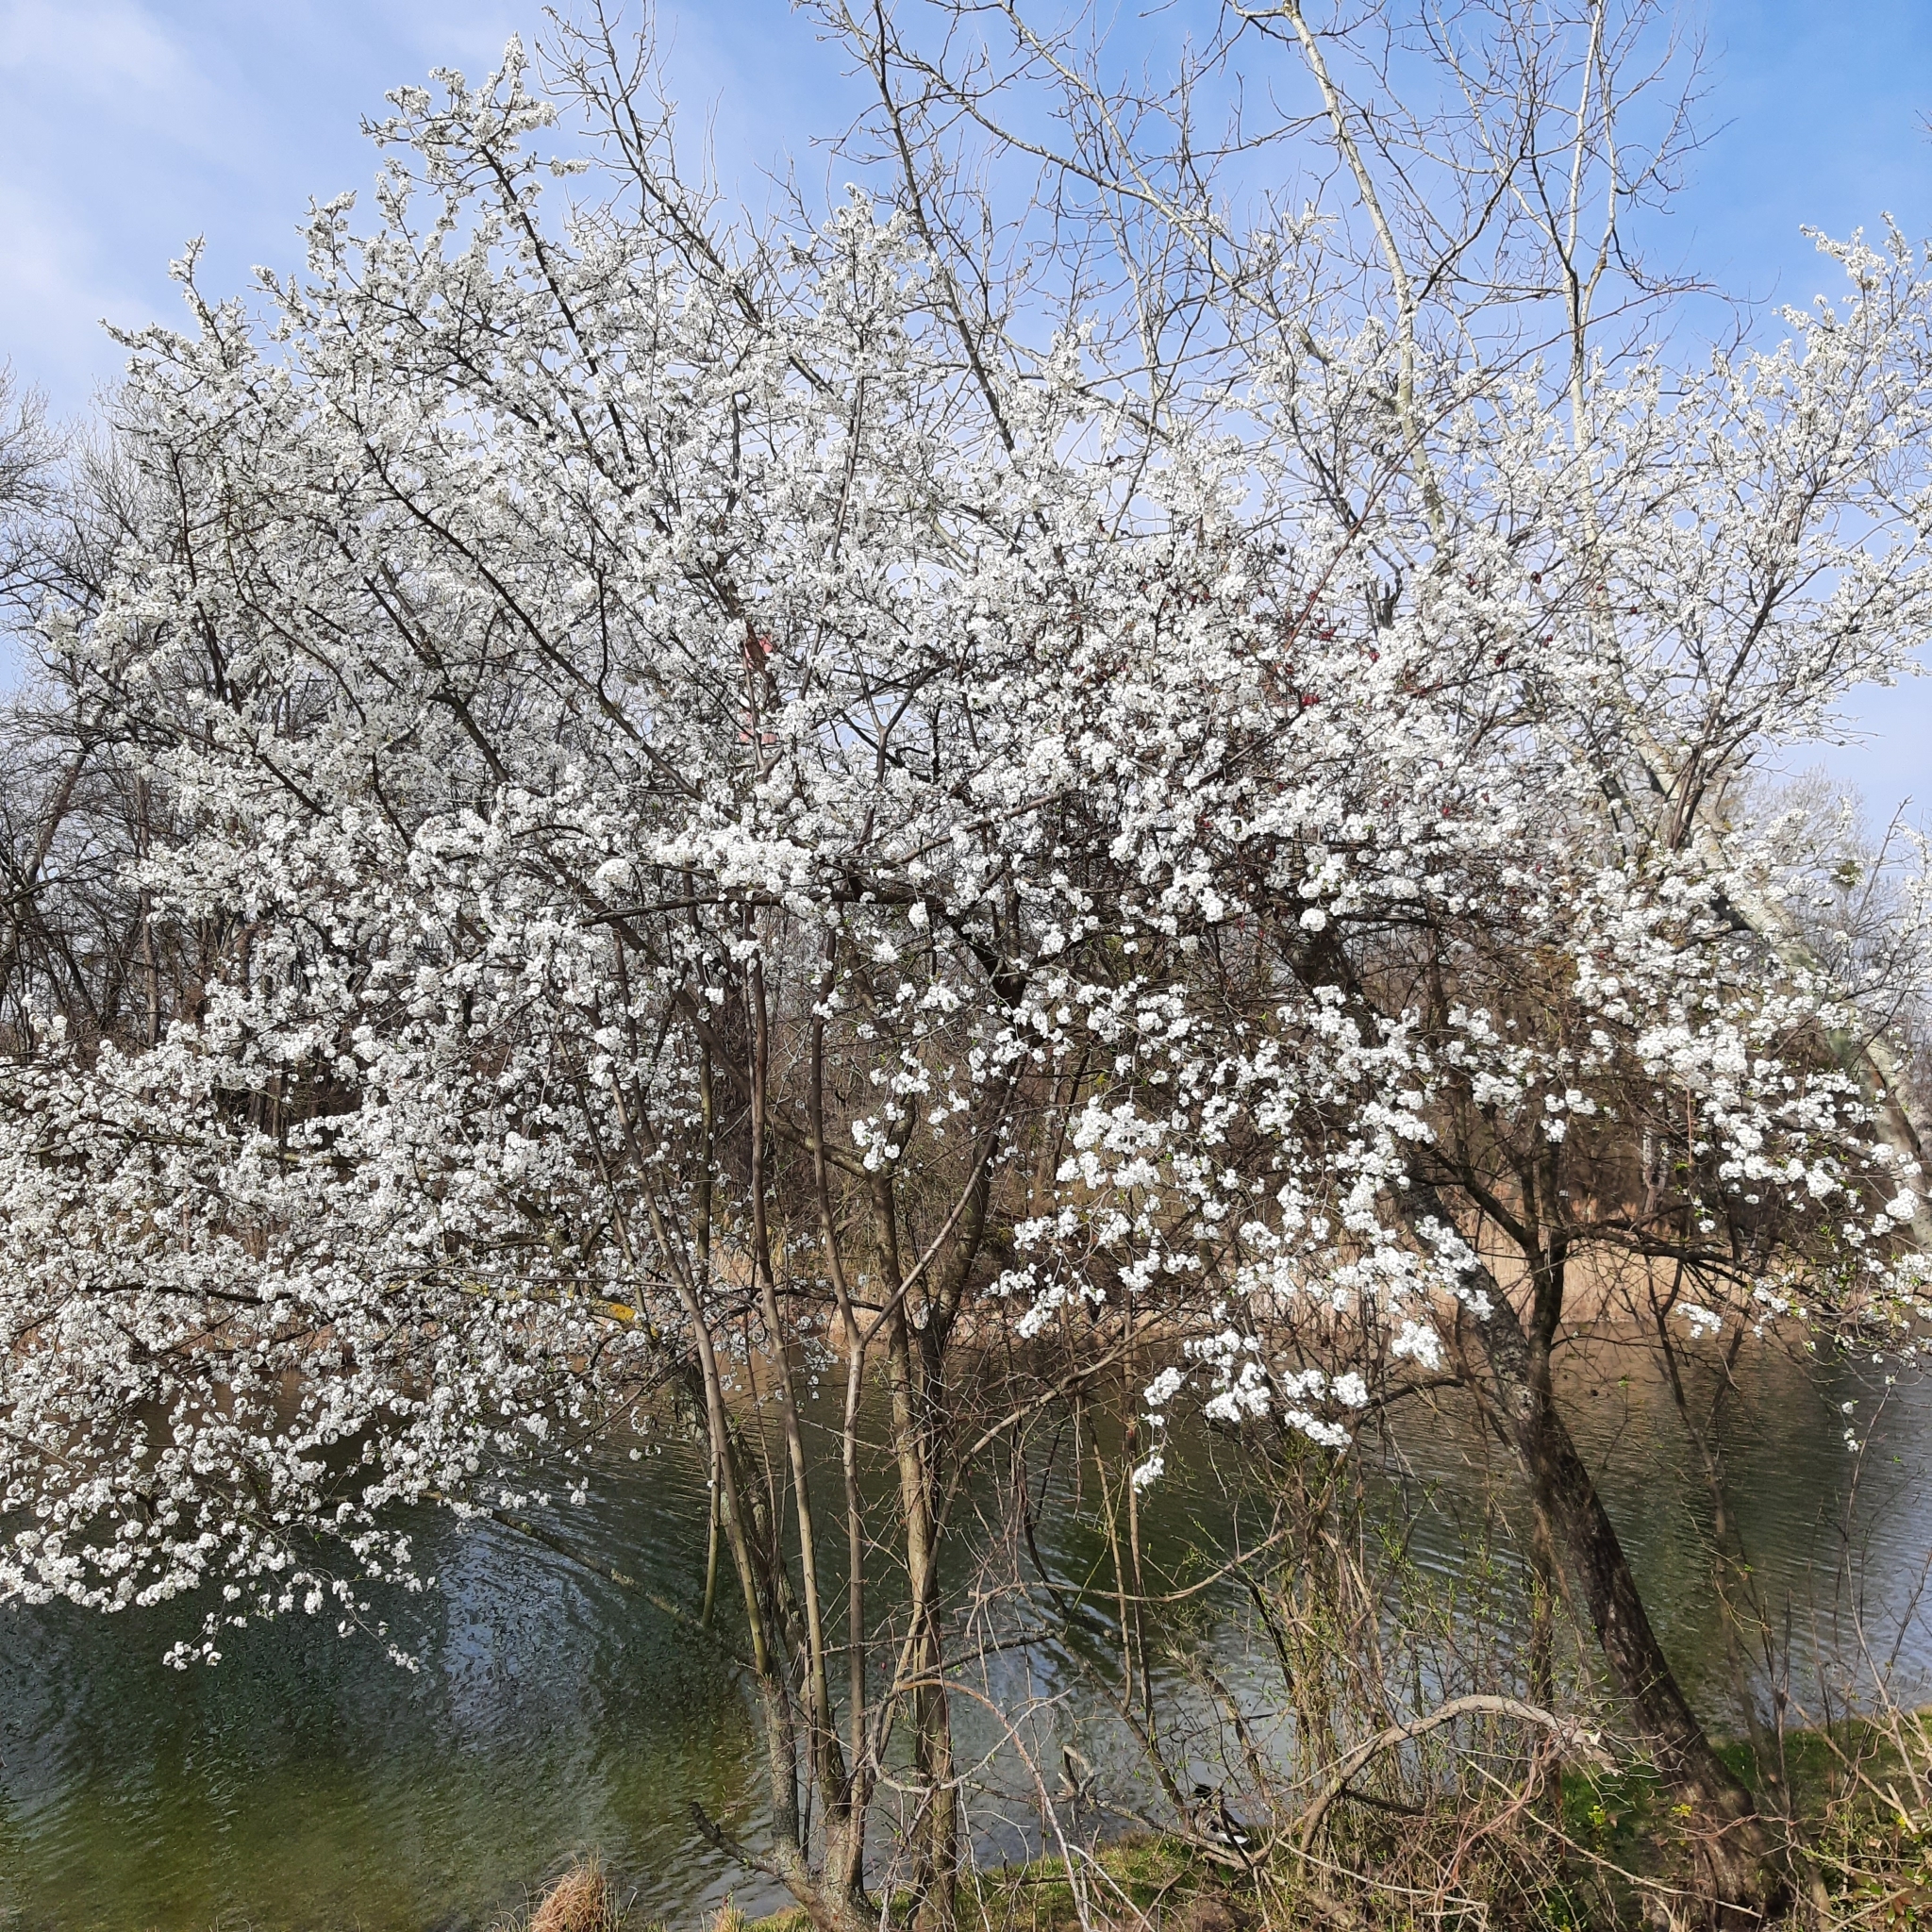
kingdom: Plantae
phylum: Tracheophyta
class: Magnoliopsida
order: Rosales
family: Rosaceae
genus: Prunus
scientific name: Prunus spinosa
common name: Blackthorn
